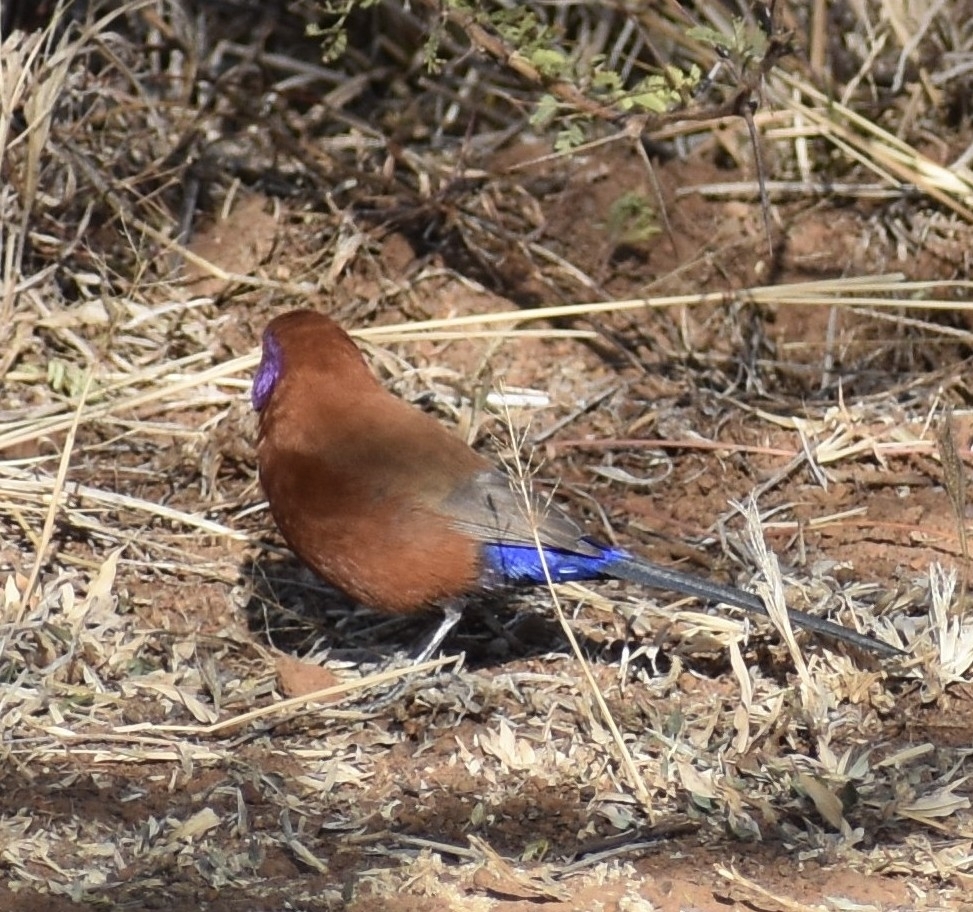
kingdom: Animalia
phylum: Chordata
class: Aves
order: Passeriformes
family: Estrildidae
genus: Uraeginthus
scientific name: Uraeginthus granatinus
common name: Violet-eared waxbill
